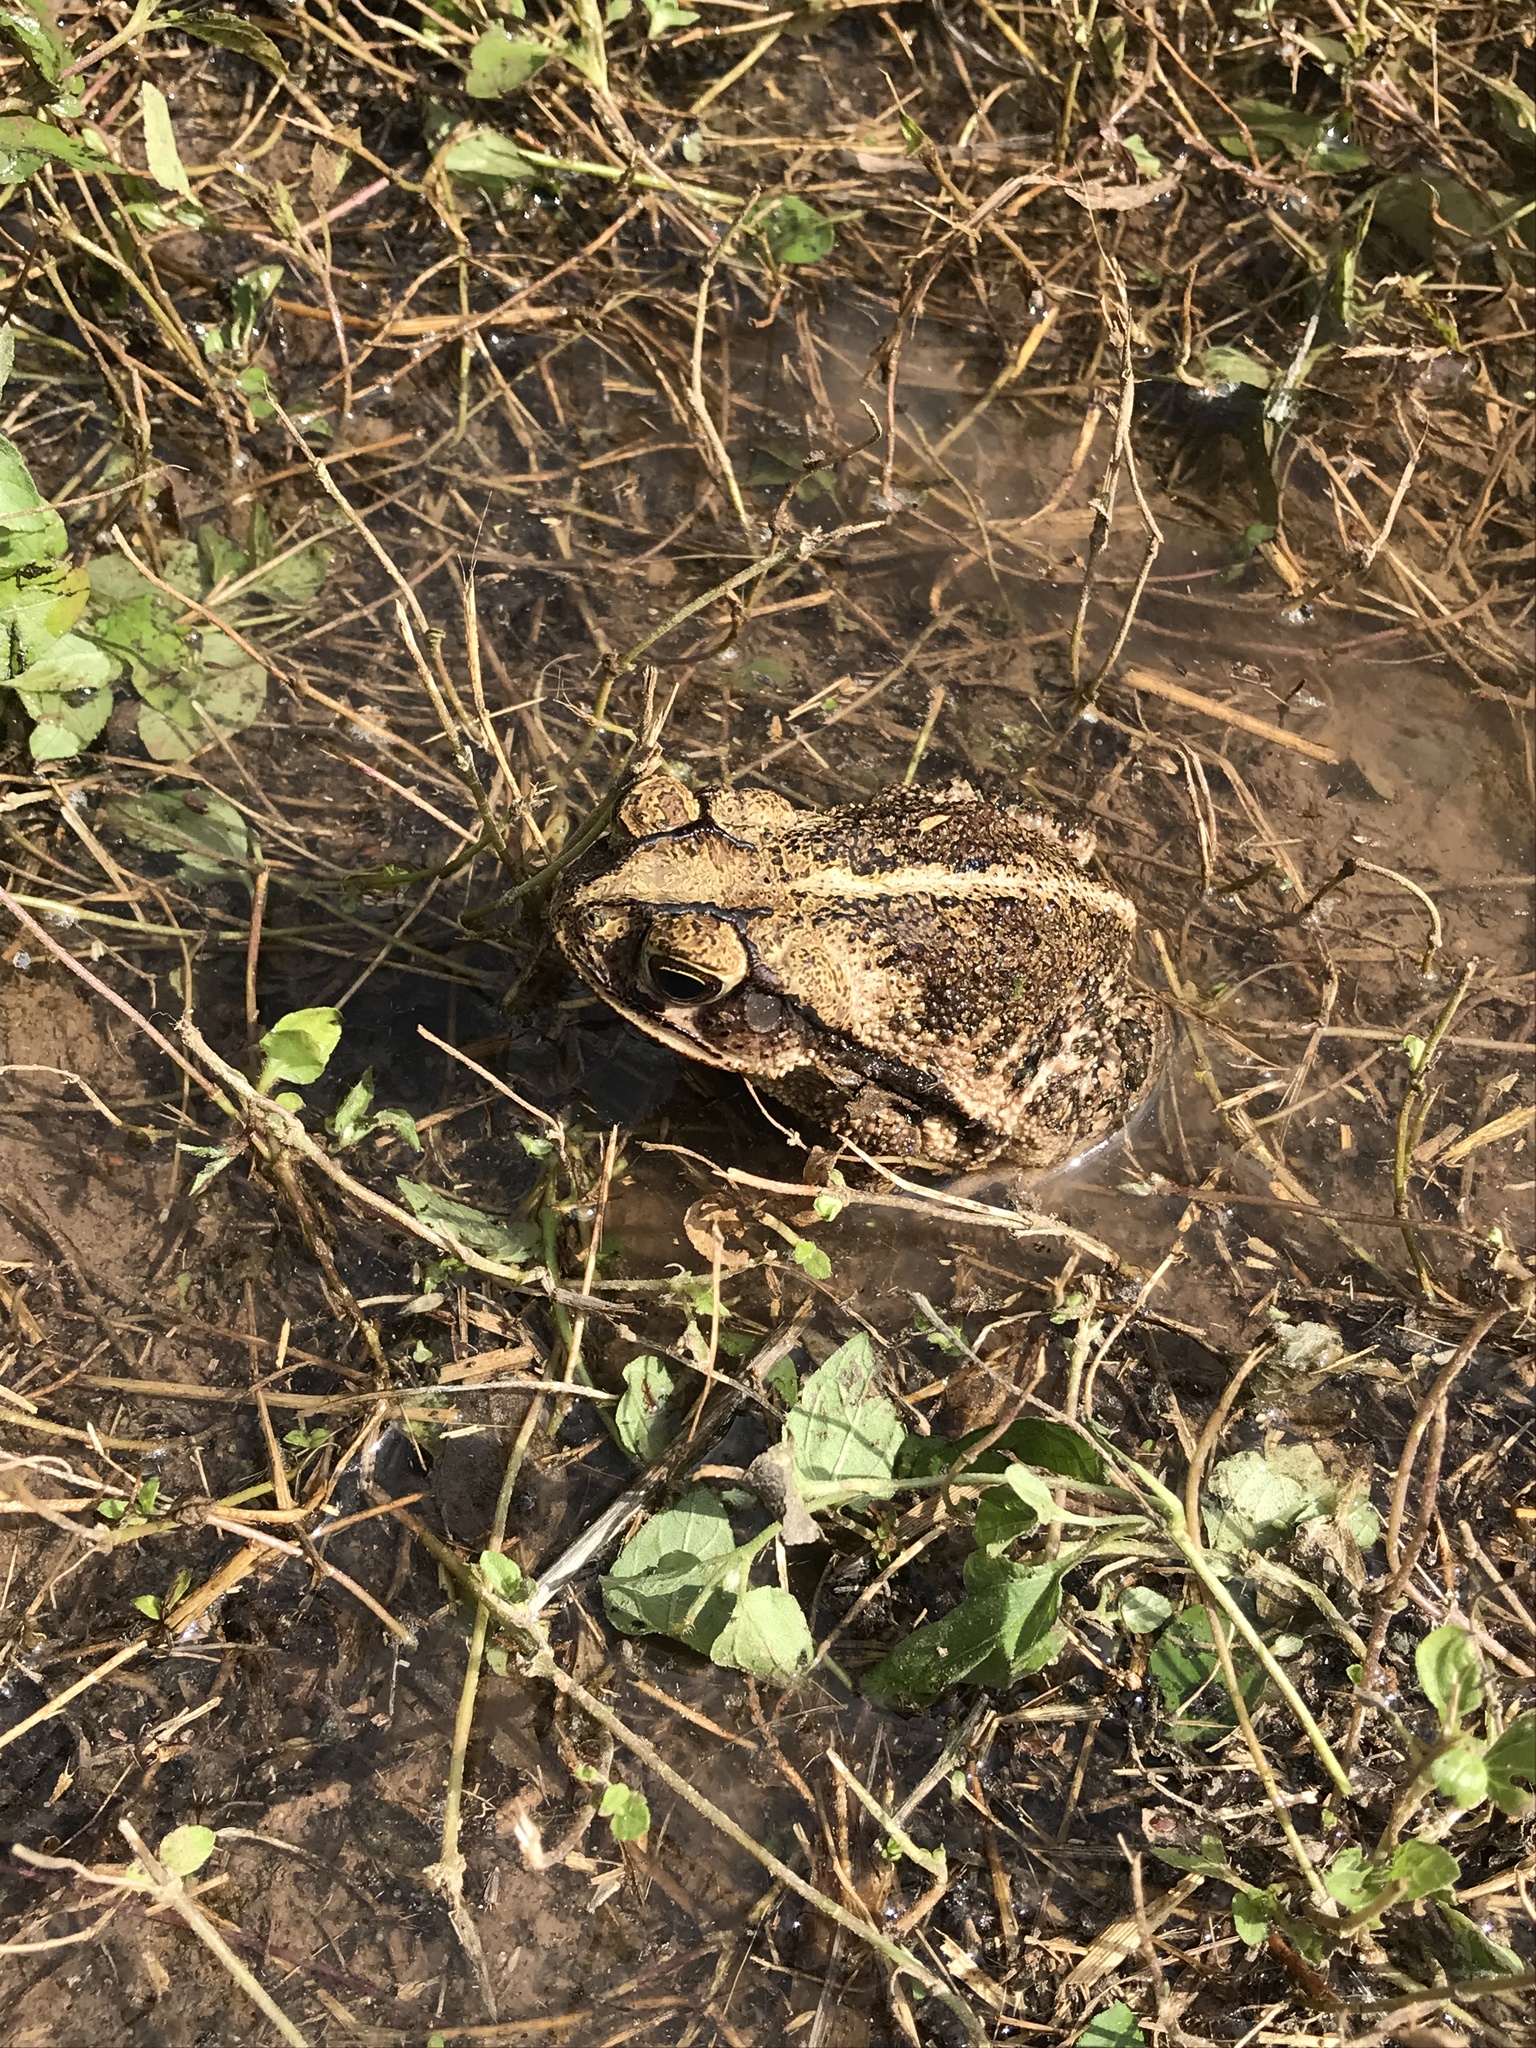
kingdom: Animalia
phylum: Chordata
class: Amphibia
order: Anura
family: Bufonidae
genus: Incilius
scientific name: Incilius nebulifer
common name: Gulf coast toad
